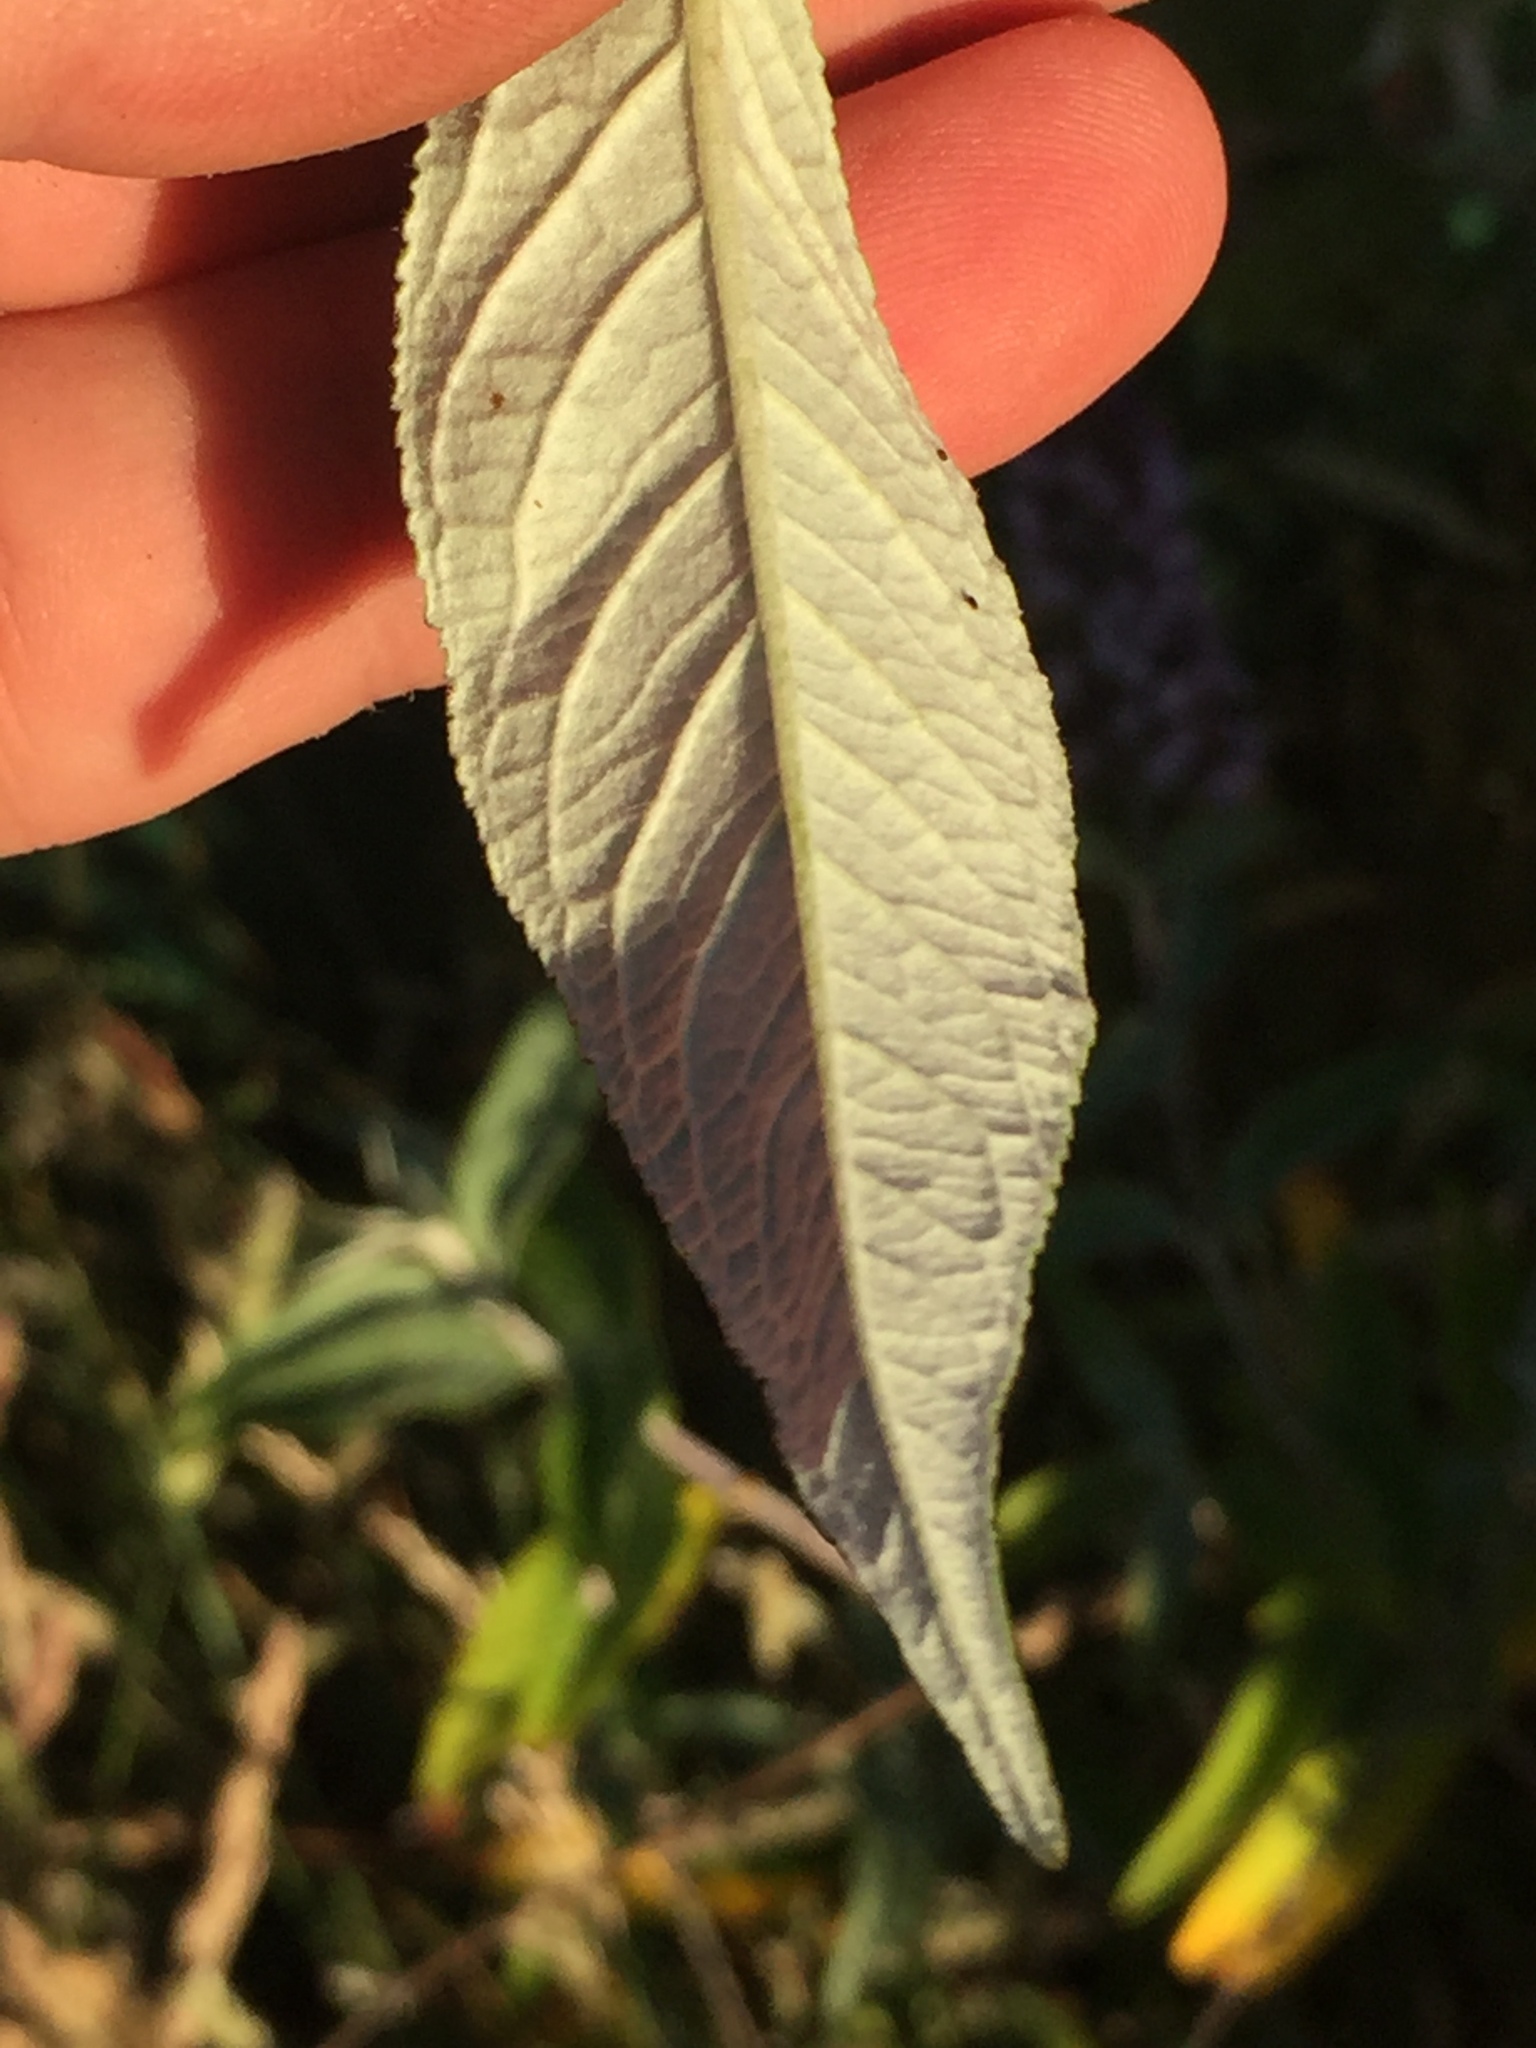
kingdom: Plantae
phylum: Tracheophyta
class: Magnoliopsida
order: Lamiales
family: Scrophulariaceae
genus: Buddleja
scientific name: Buddleja davidii
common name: Butterfly-bush
